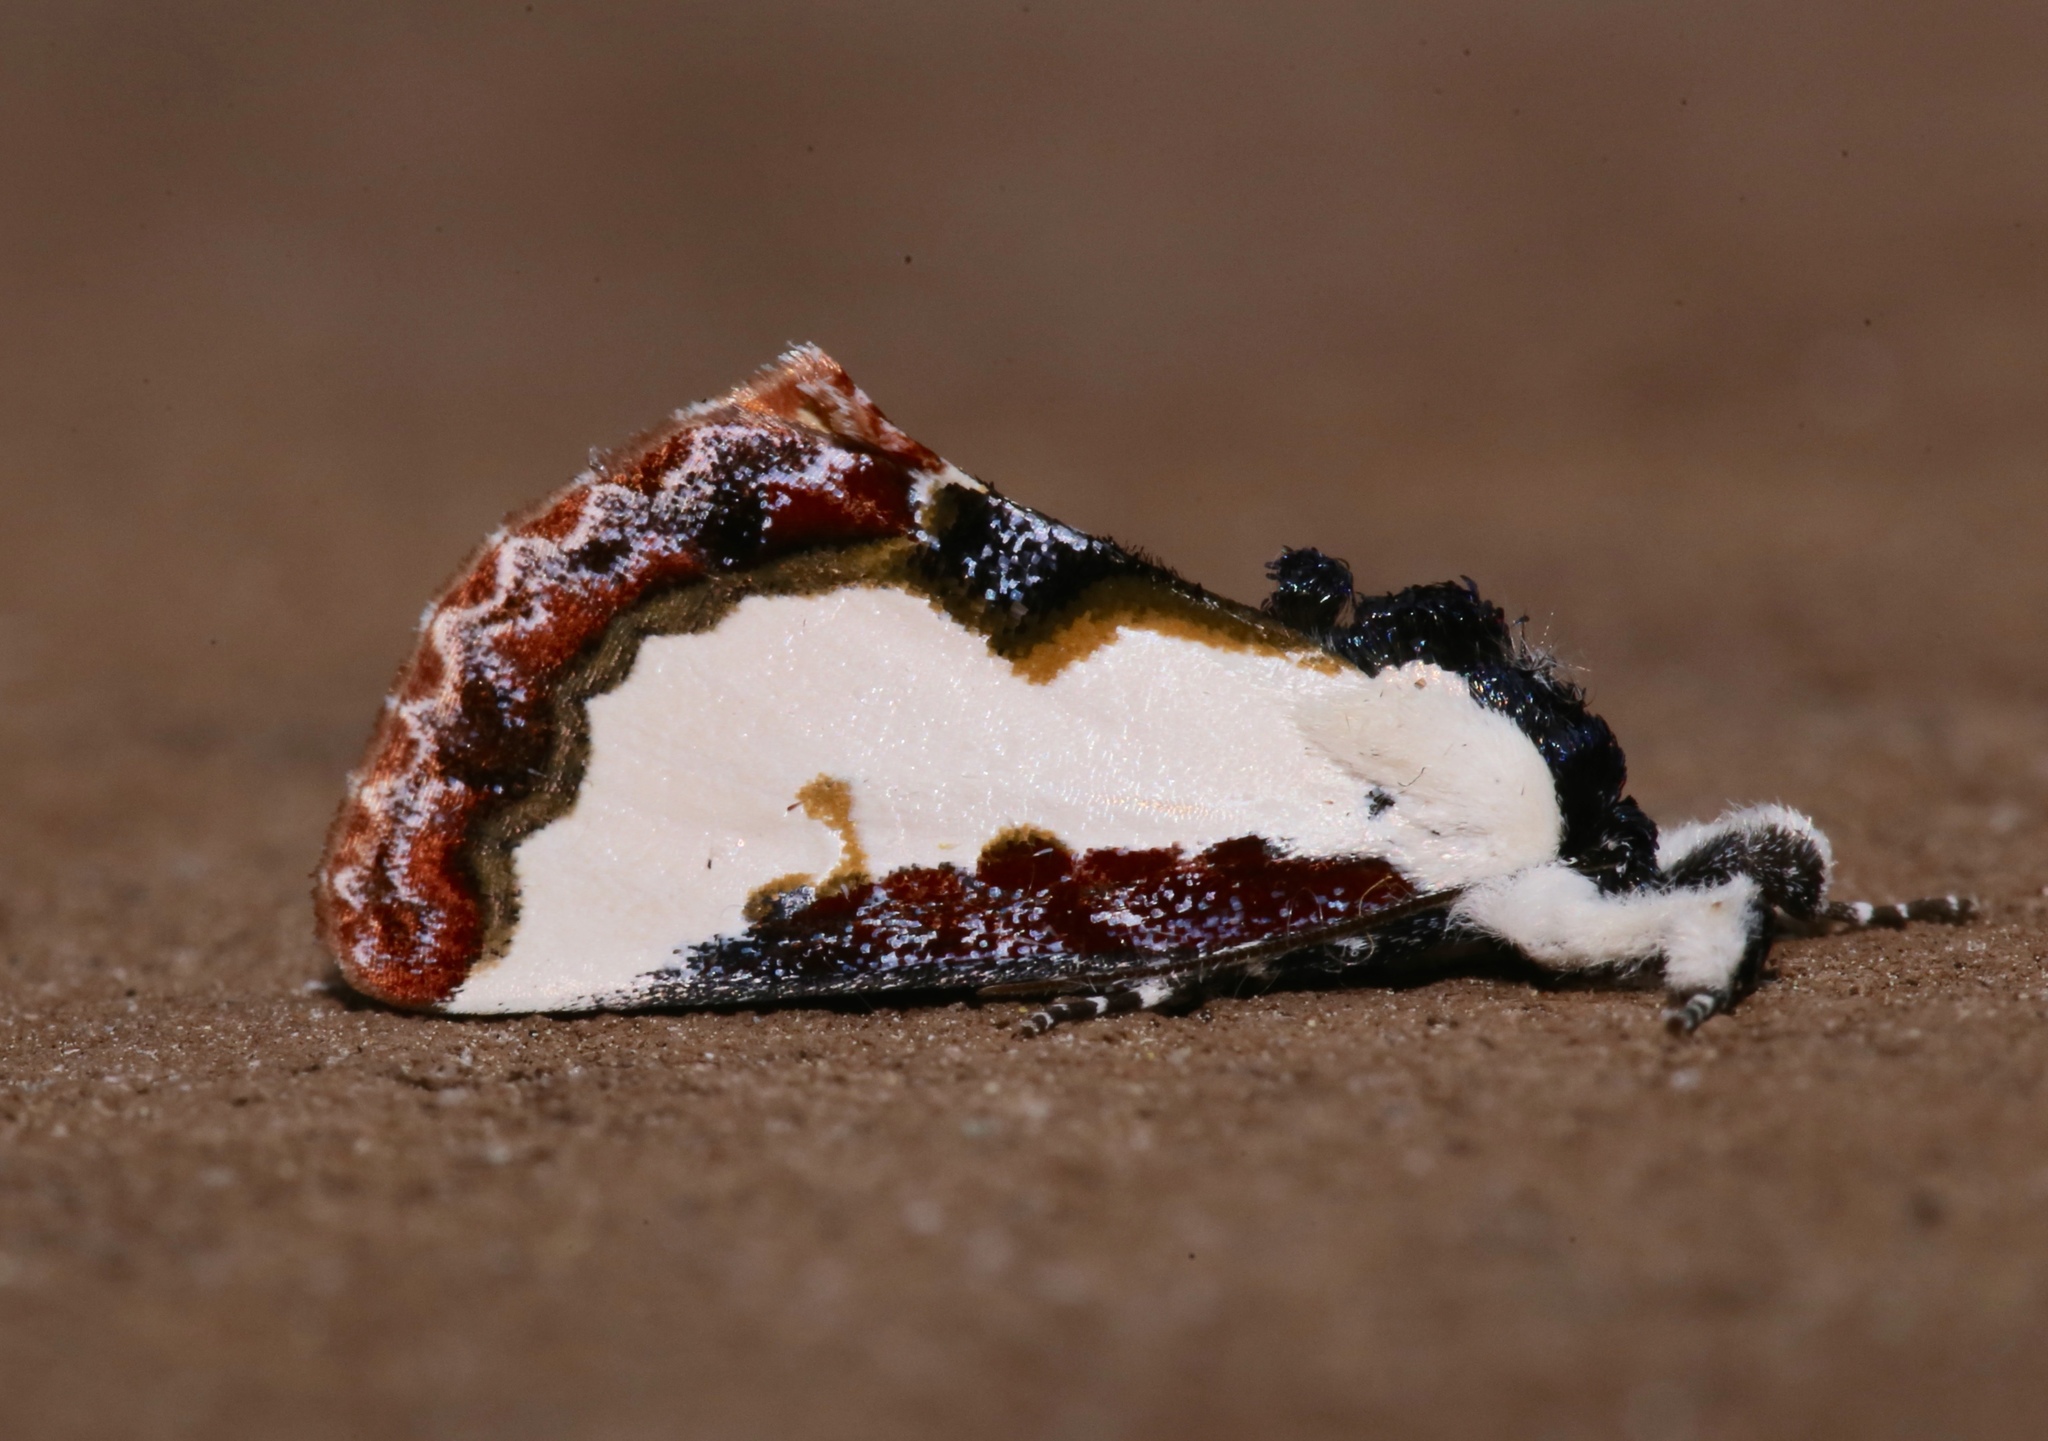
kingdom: Animalia
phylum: Arthropoda
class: Insecta
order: Lepidoptera
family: Noctuidae
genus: Eudryas
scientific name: Eudryas unio
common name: Pearly wood-nymph
